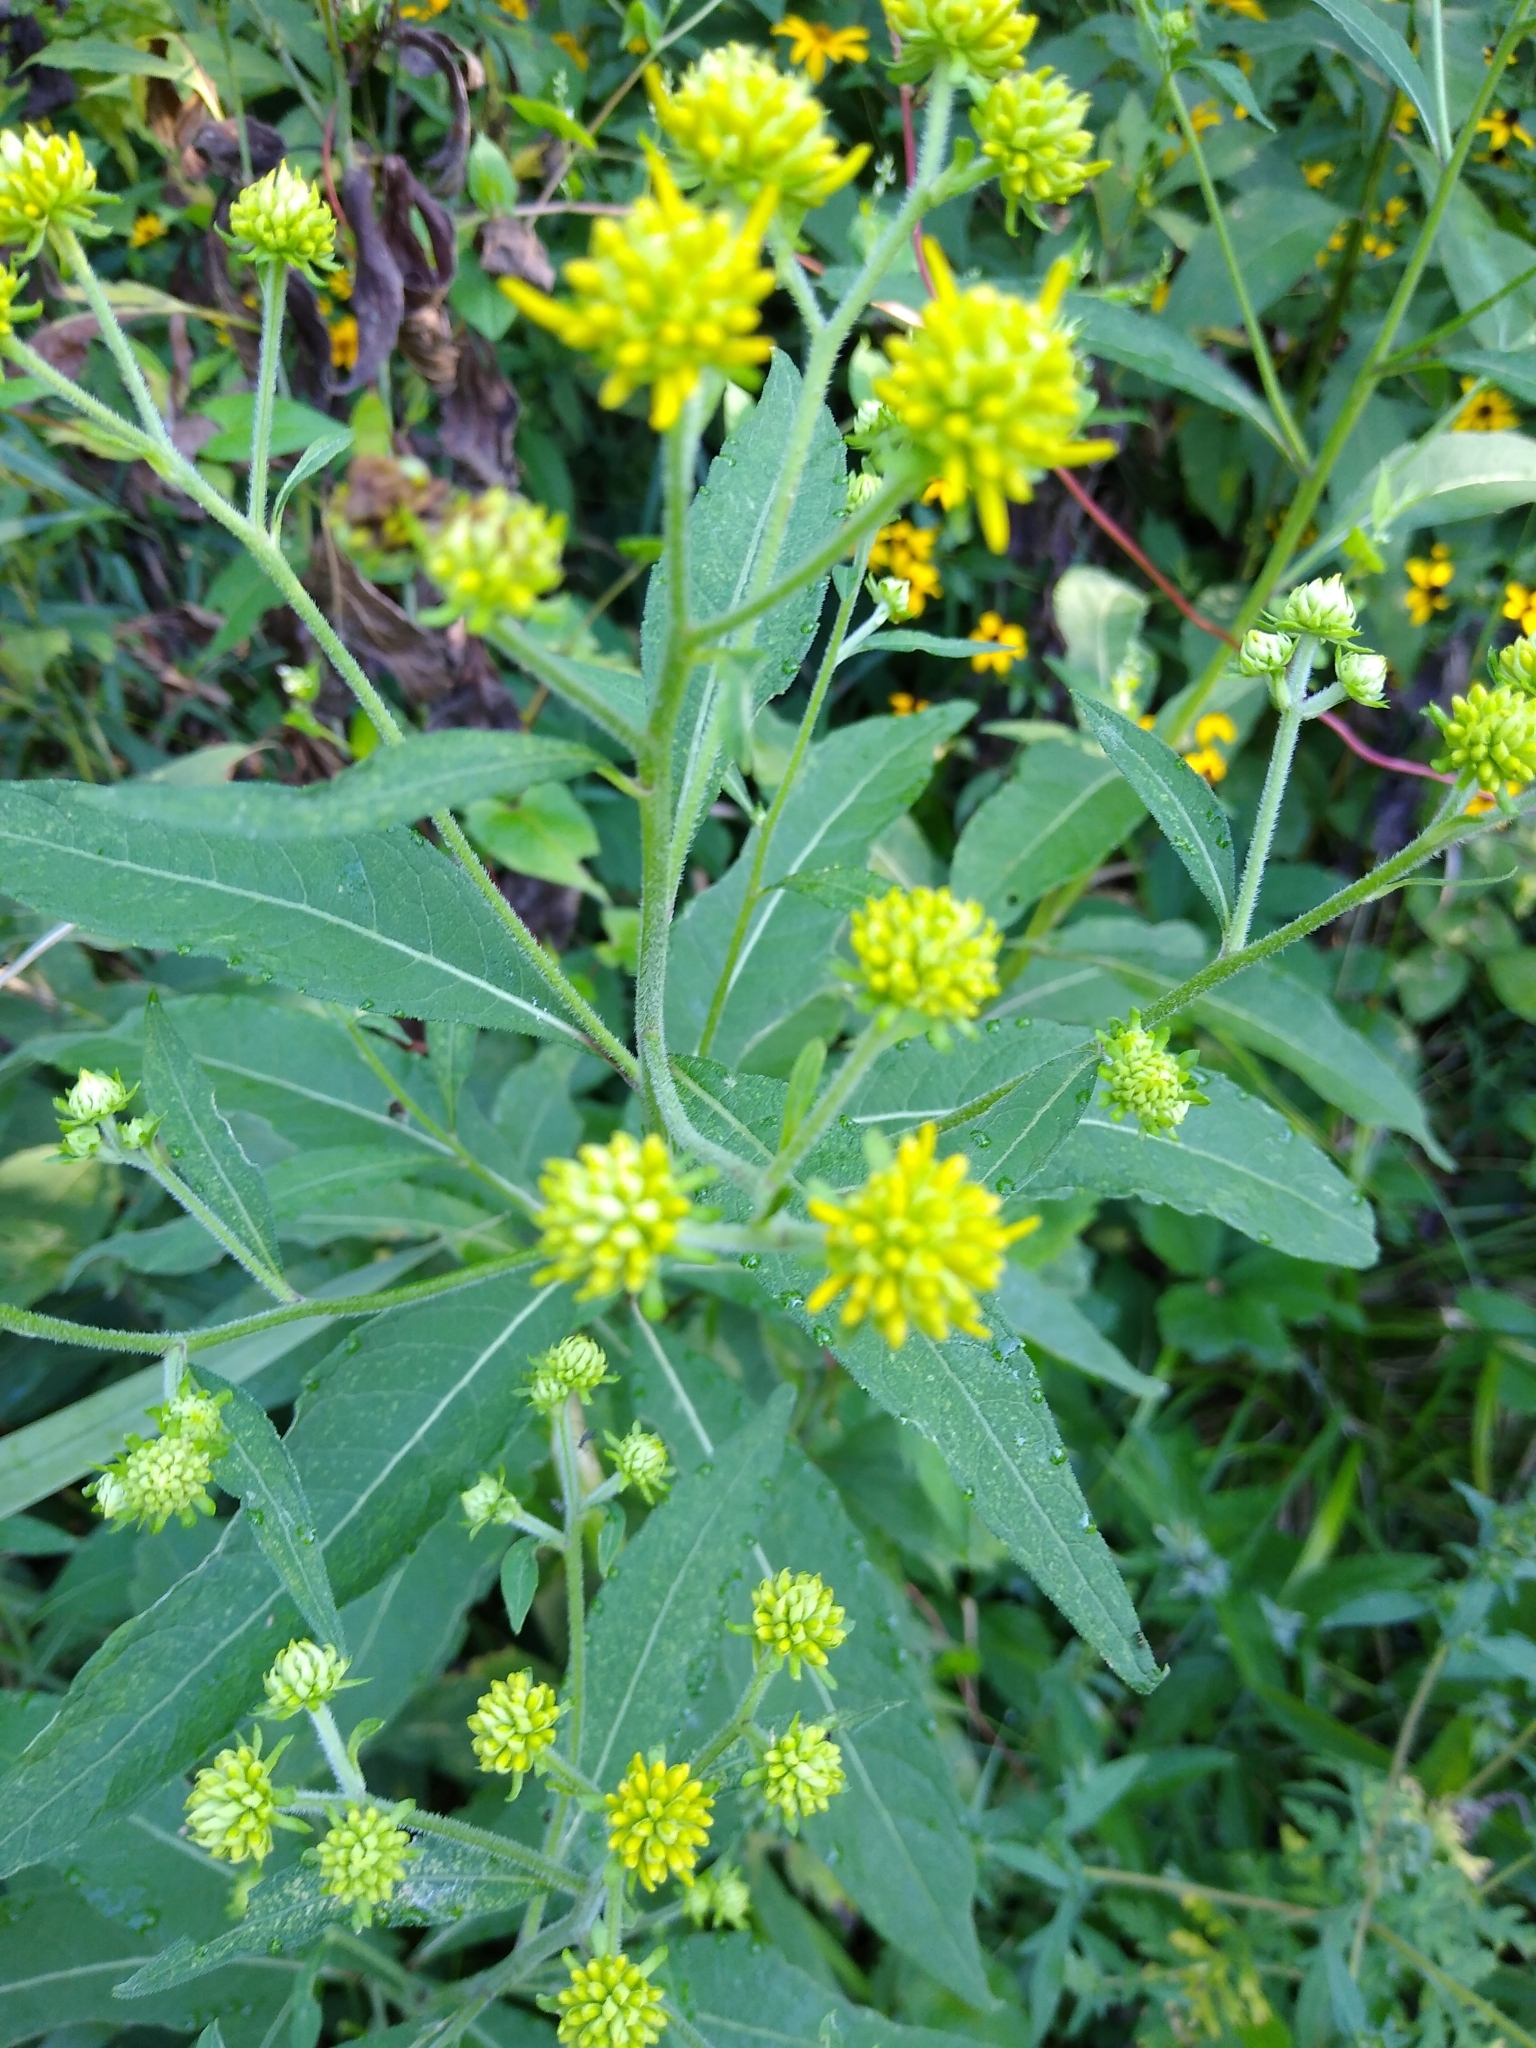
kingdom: Plantae
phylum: Tracheophyta
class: Magnoliopsida
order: Asterales
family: Asteraceae
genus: Verbesina
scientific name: Verbesina alternifolia
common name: Wingstem
